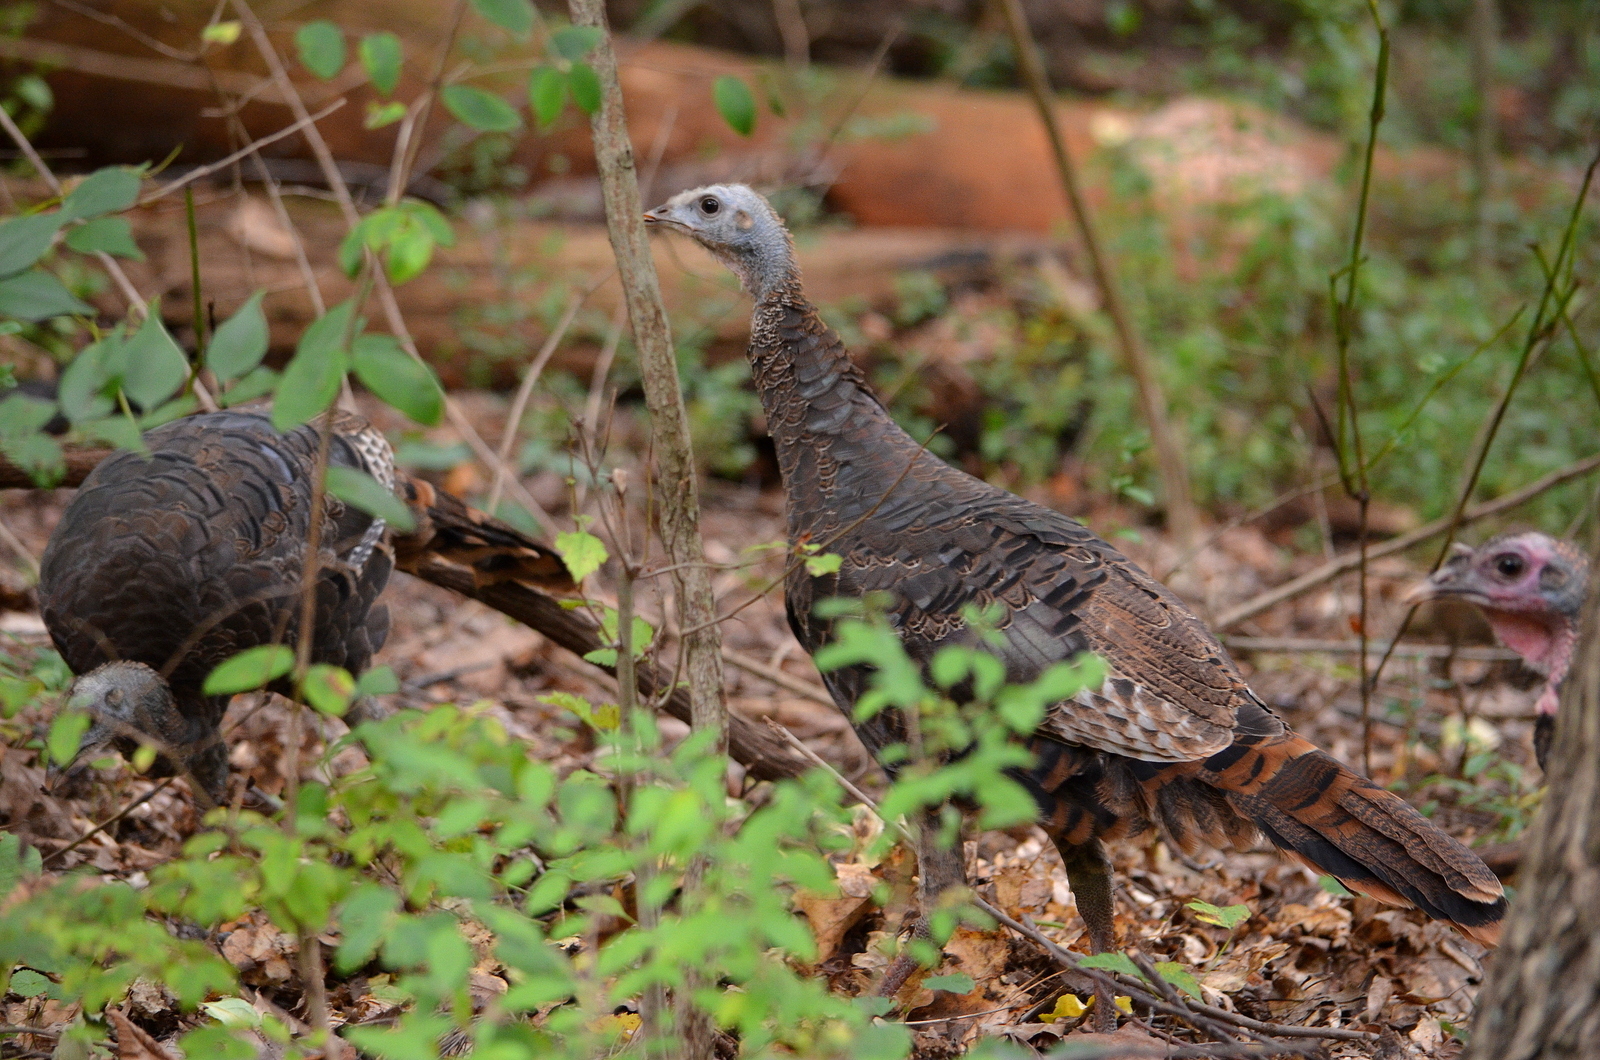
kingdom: Animalia
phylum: Chordata
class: Aves
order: Galliformes
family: Phasianidae
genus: Meleagris
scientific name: Meleagris gallopavo
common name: Wild turkey
